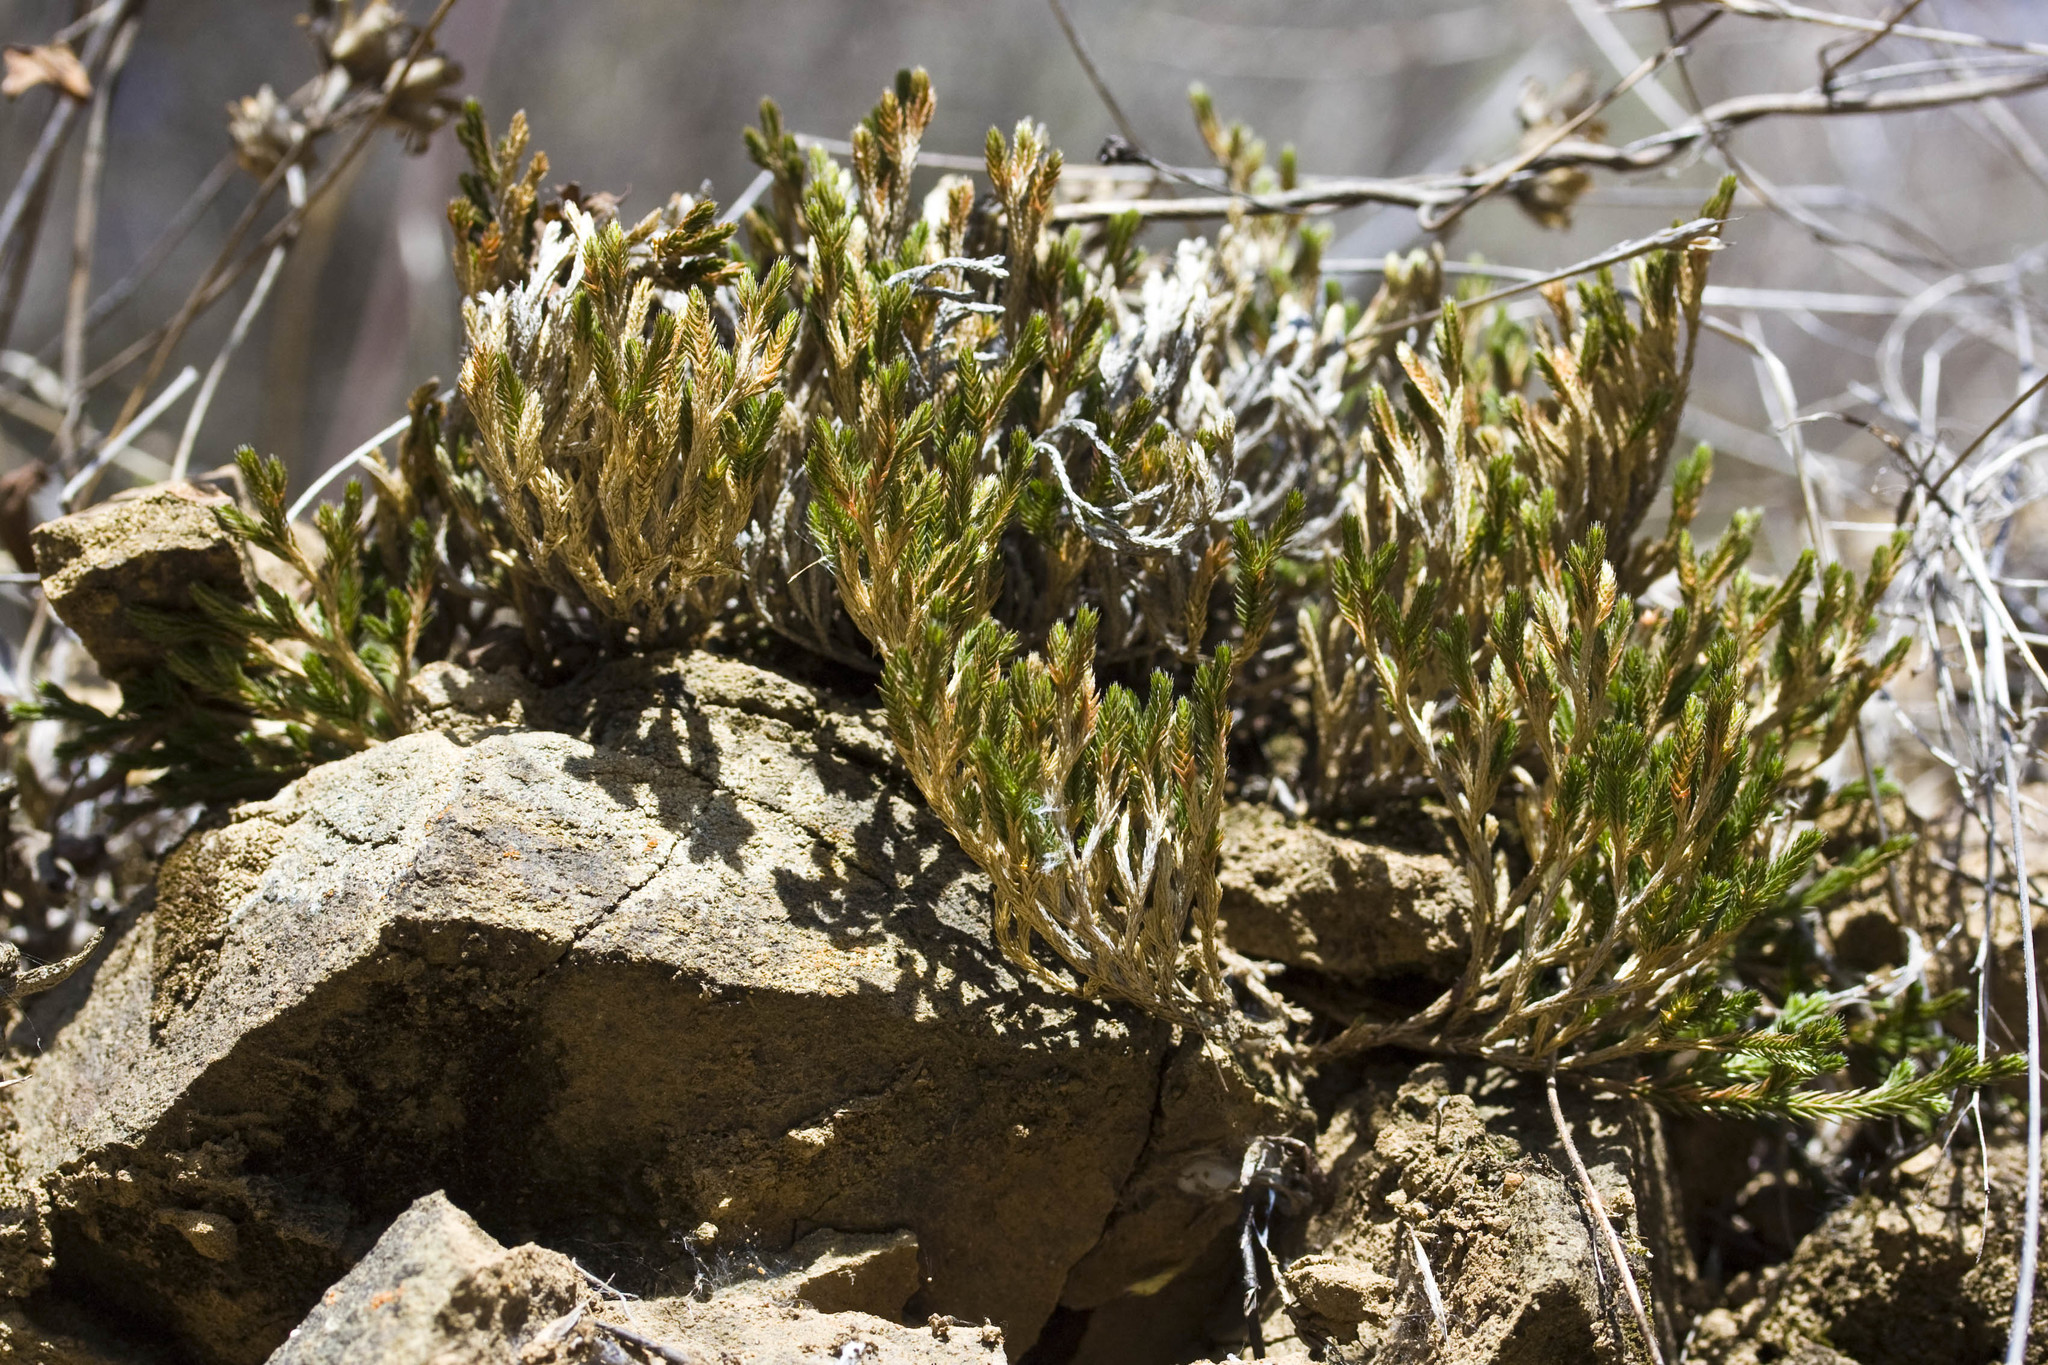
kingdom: Plantae
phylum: Tracheophyta
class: Lycopodiopsida
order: Selaginellales
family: Selaginellaceae
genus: Selaginella
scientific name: Selaginella bigelovii
